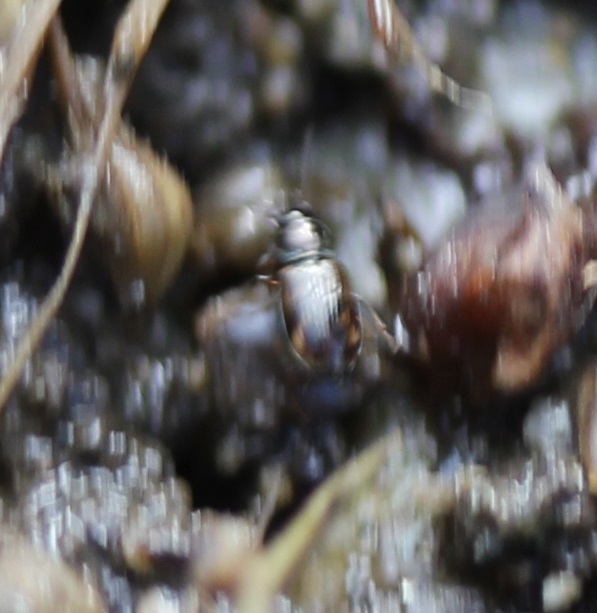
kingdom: Animalia
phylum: Arthropoda
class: Insecta
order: Coleoptera
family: Carabidae
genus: Bembidion
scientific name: Bembidion
